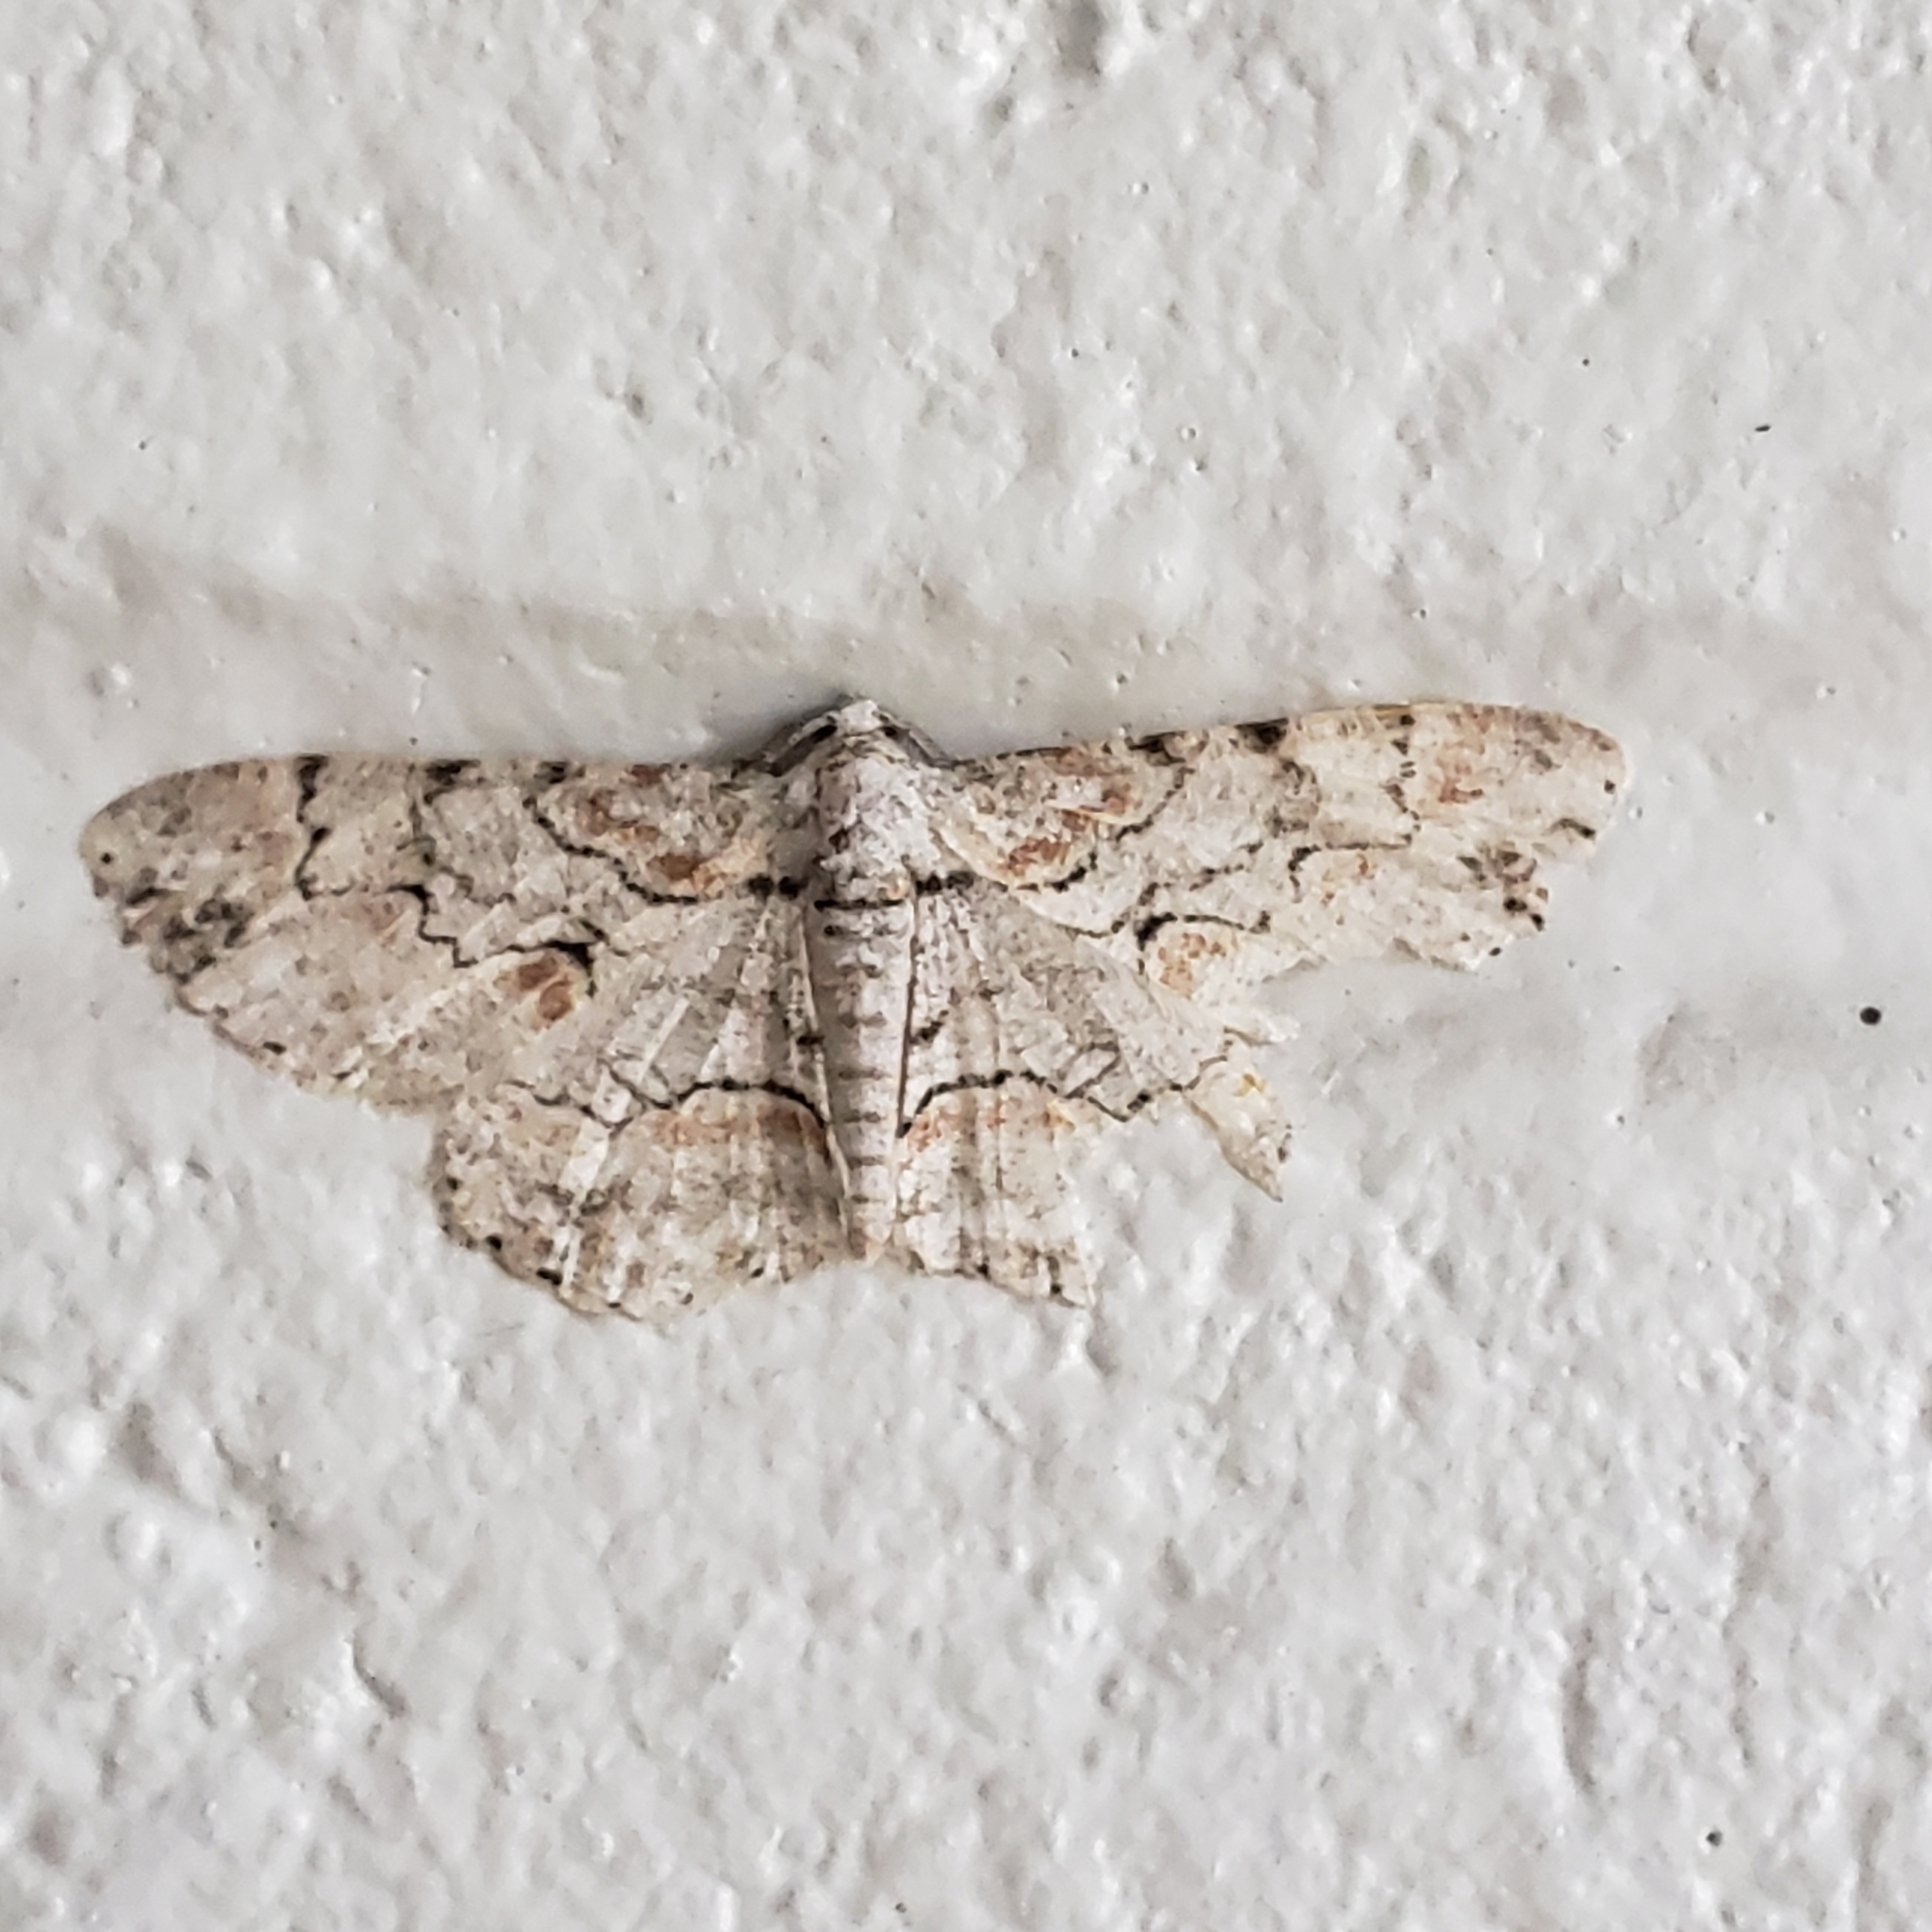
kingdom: Animalia
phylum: Arthropoda
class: Insecta
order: Lepidoptera
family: Geometridae
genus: Iridopsis
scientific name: Iridopsis defectaria
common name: Brown-shaded gray
